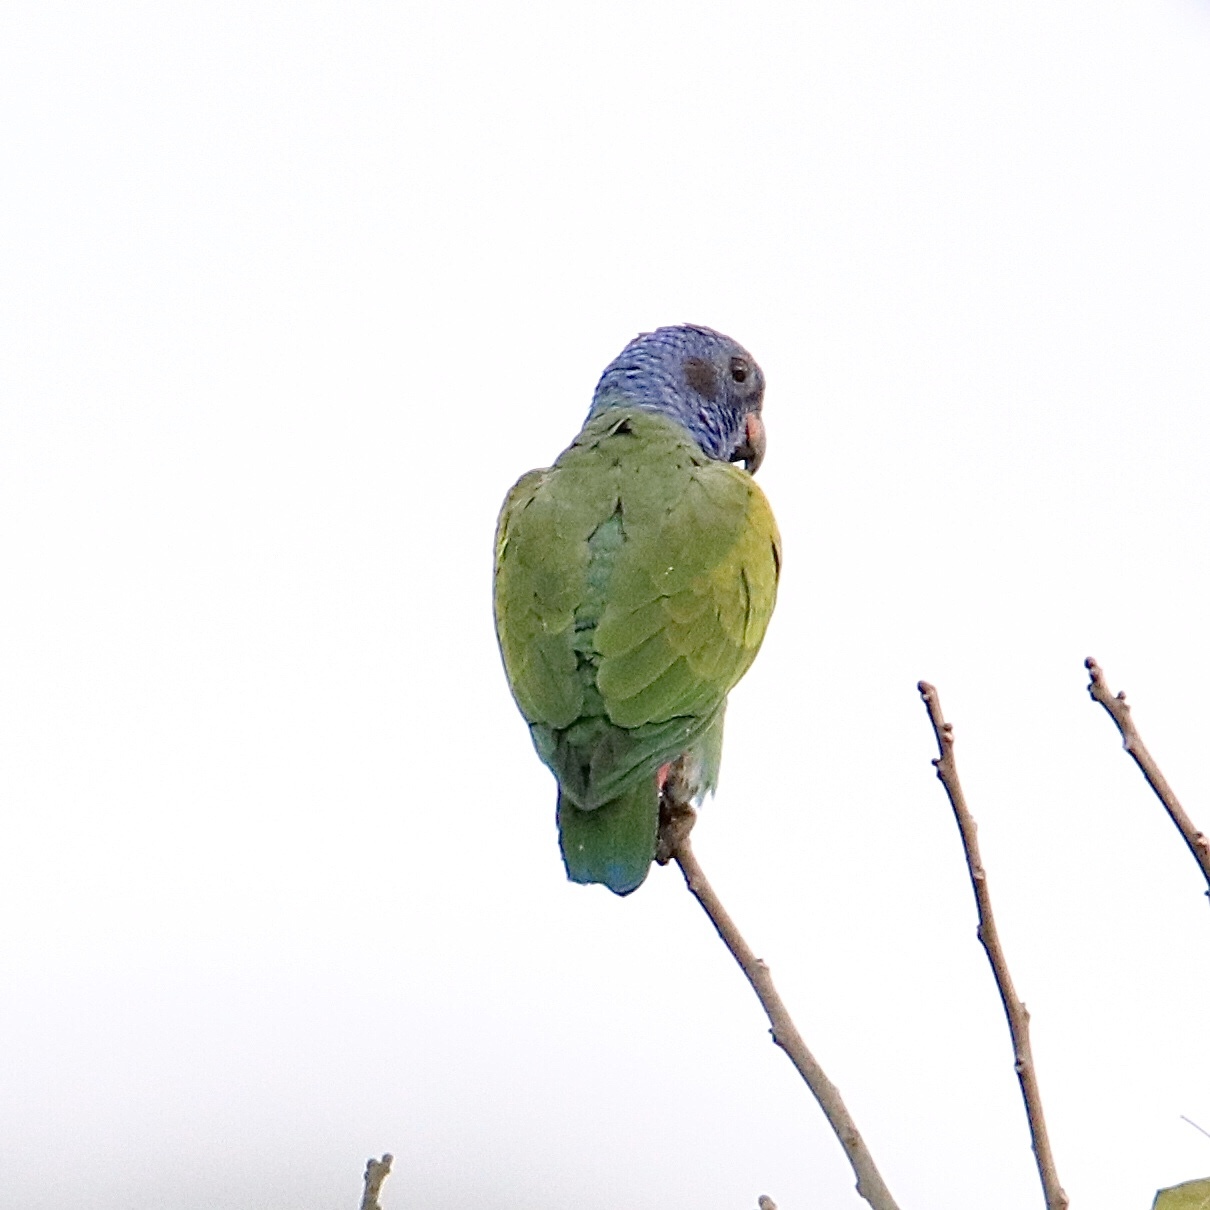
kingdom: Animalia
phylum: Chordata
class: Aves
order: Psittaciformes
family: Psittacidae
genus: Pionus
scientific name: Pionus menstruus
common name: Blue-headed parrot
